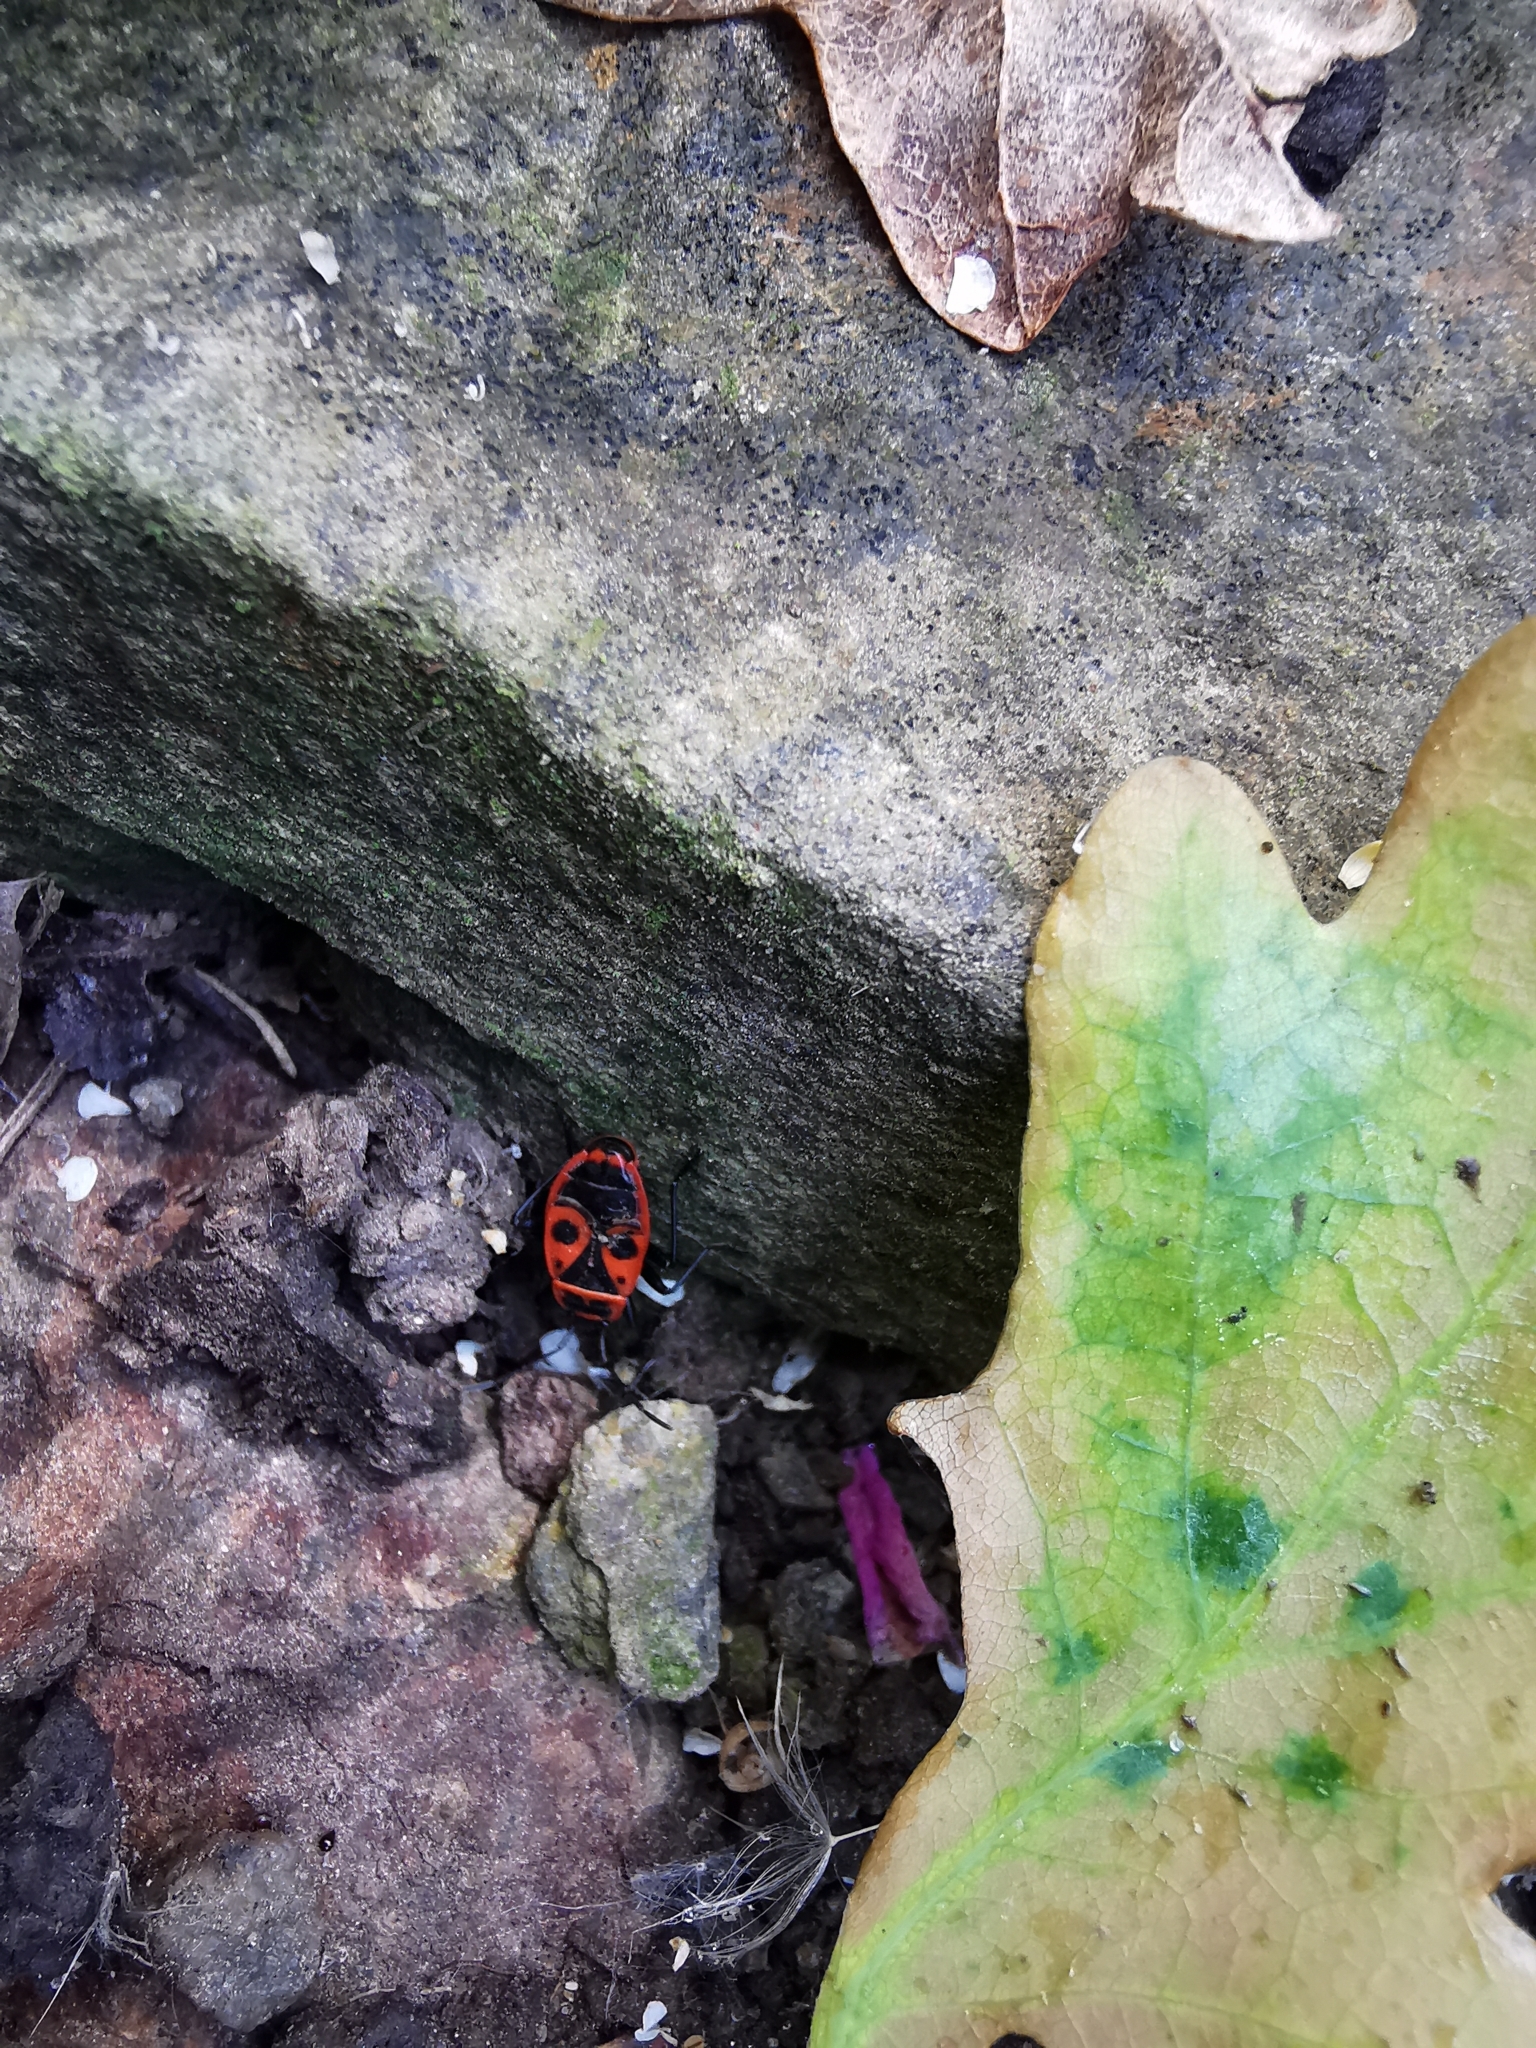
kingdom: Animalia
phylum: Arthropoda
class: Insecta
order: Hemiptera
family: Pyrrhocoridae
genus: Pyrrhocoris
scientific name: Pyrrhocoris apterus
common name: Firebug
